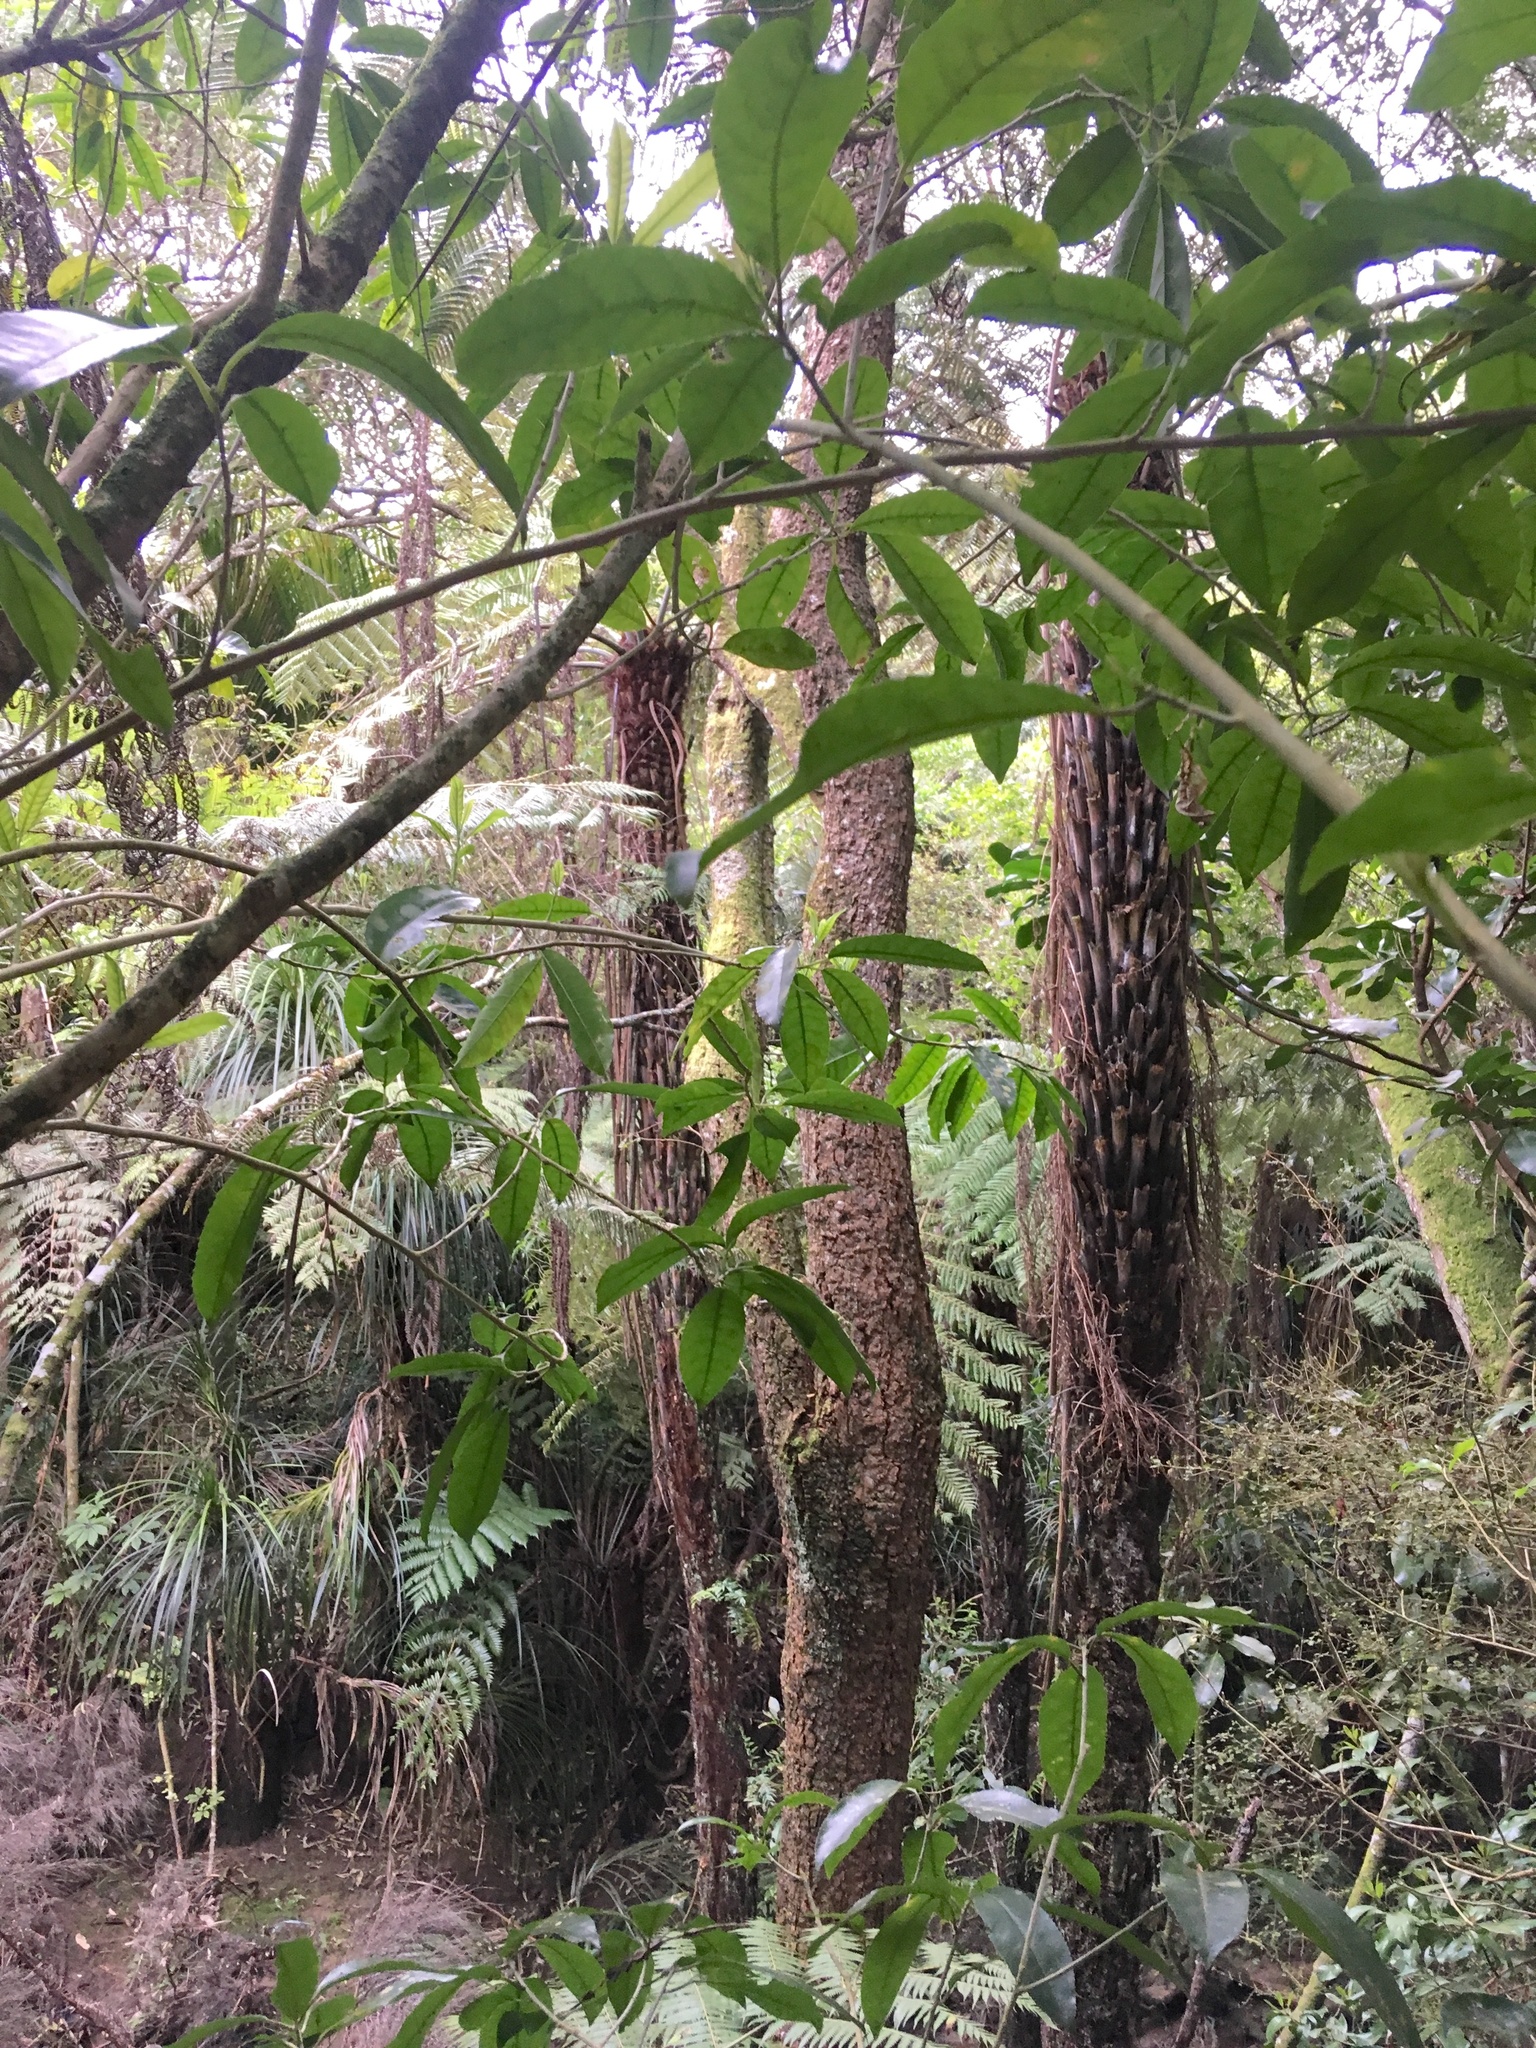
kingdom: Plantae
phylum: Tracheophyta
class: Liliopsida
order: Pandanales
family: Pandanaceae
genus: Freycinetia
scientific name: Freycinetia banksii
